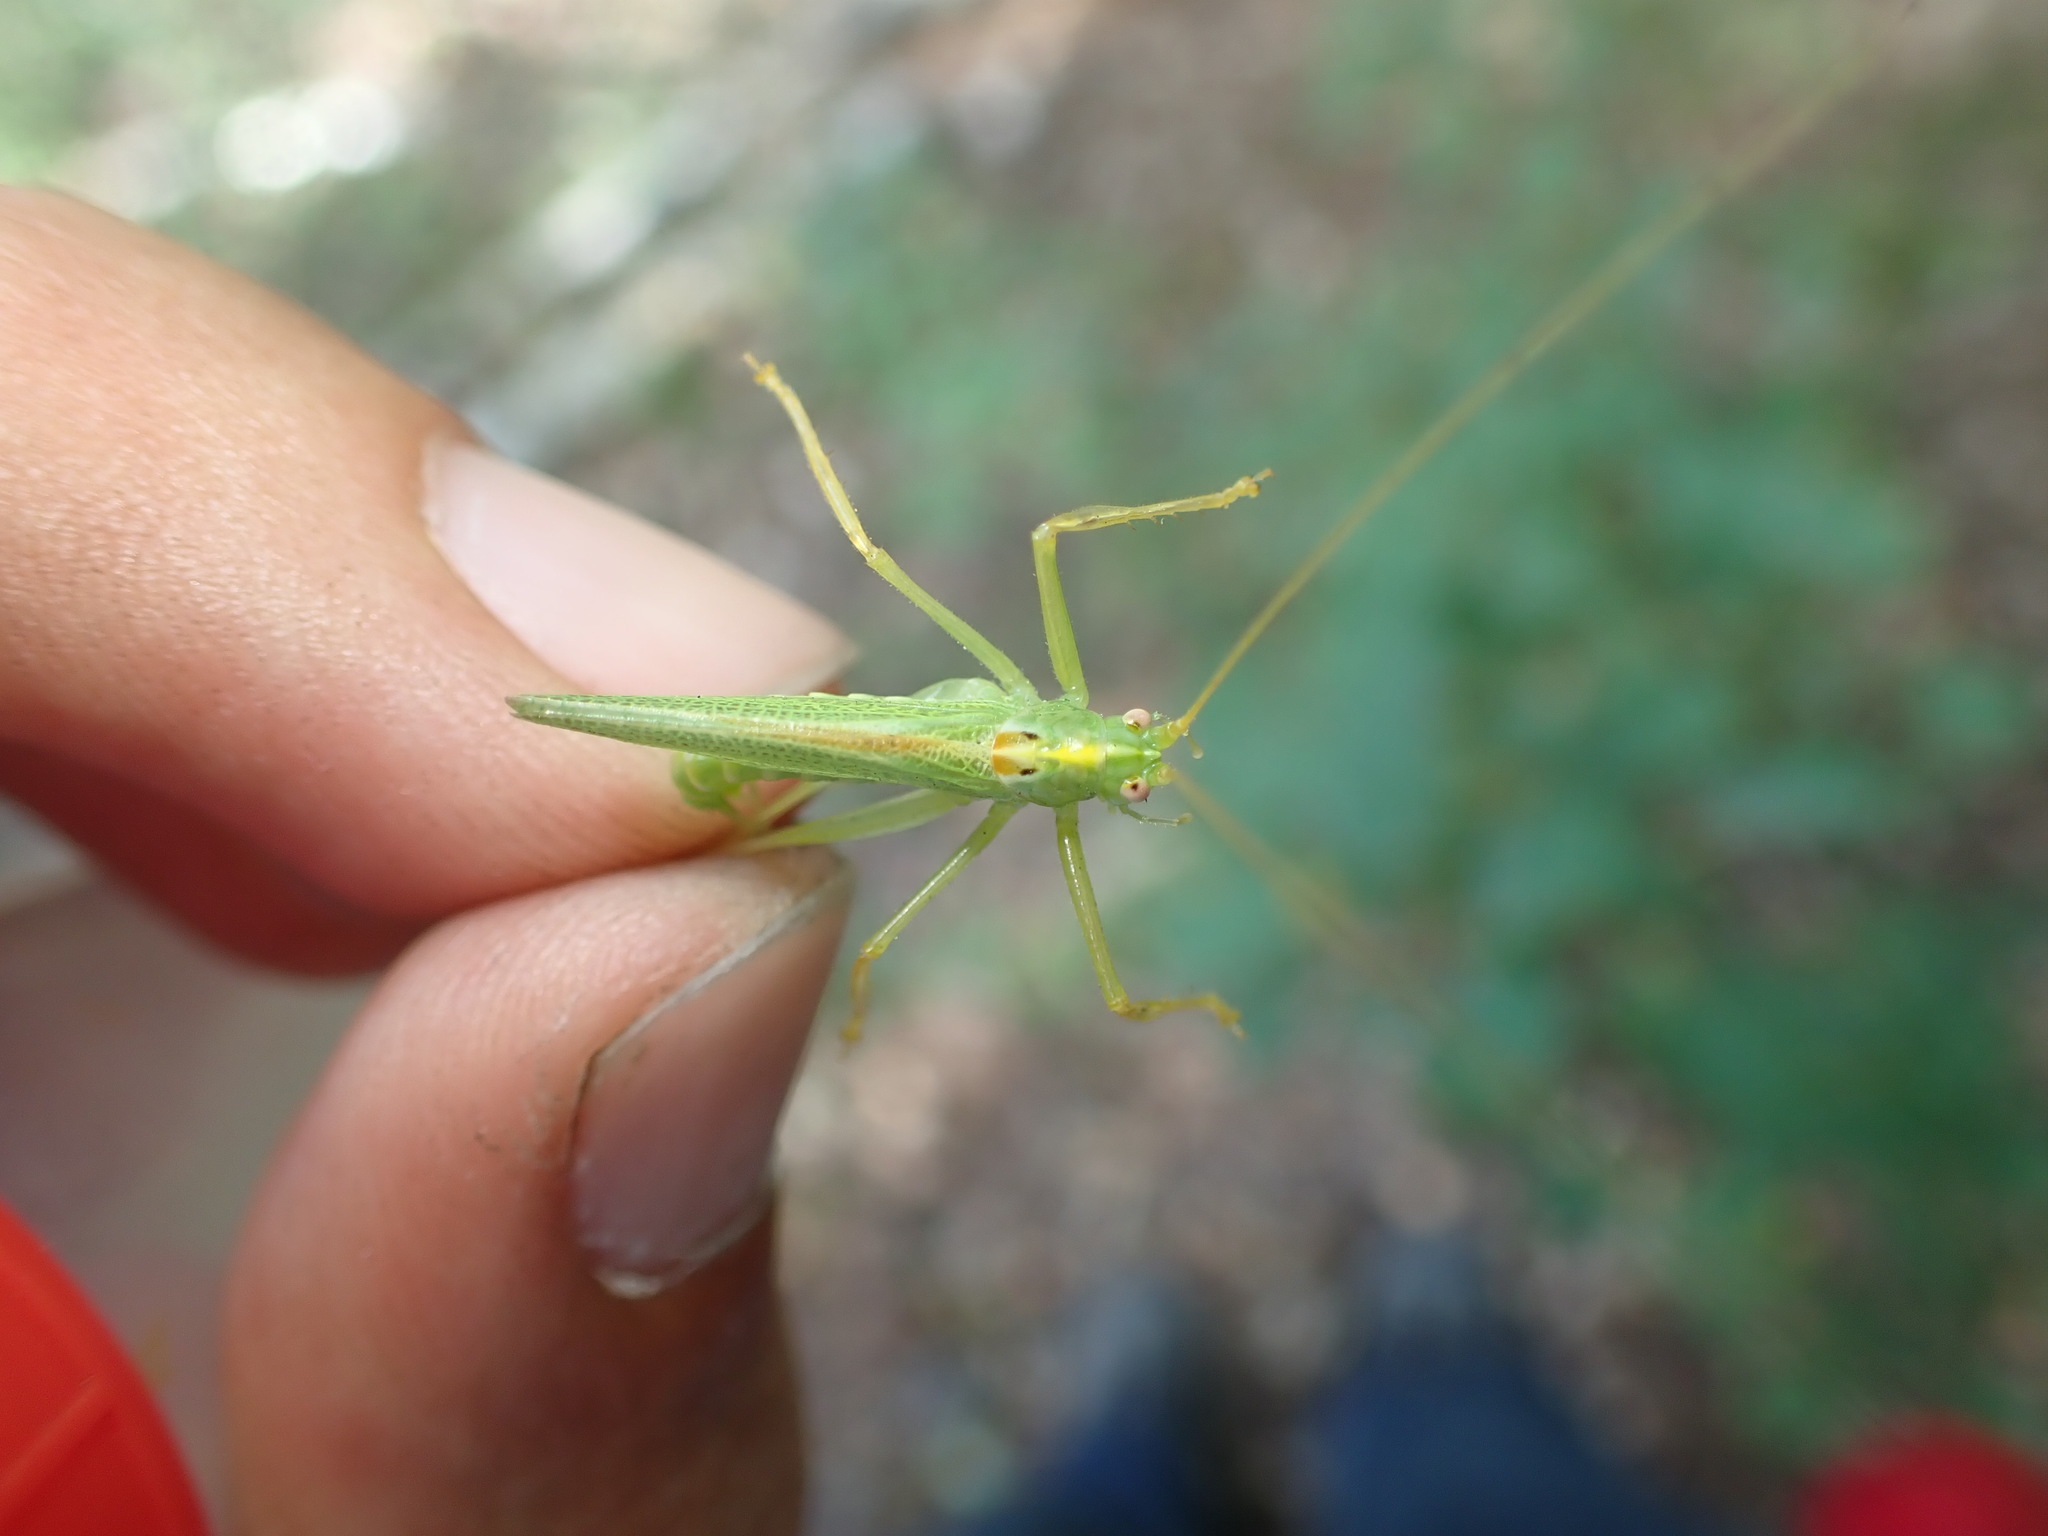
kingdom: Animalia
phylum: Arthropoda
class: Insecta
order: Orthoptera
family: Tettigoniidae
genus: Meconema
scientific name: Meconema thalassinum
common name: Oak bush-cricket
